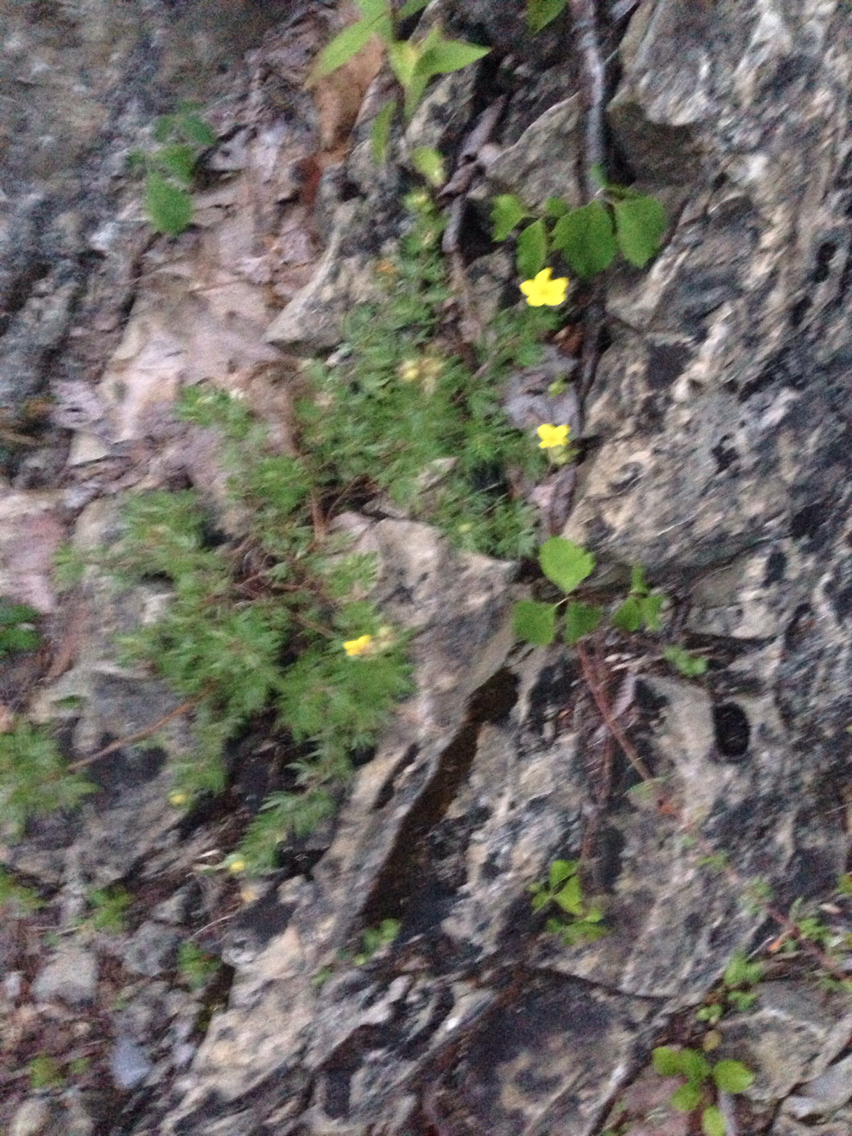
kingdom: Plantae
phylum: Tracheophyta
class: Magnoliopsida
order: Rosales
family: Rosaceae
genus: Dasiphora
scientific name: Dasiphora fruticosa
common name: Shrubby cinquefoil
